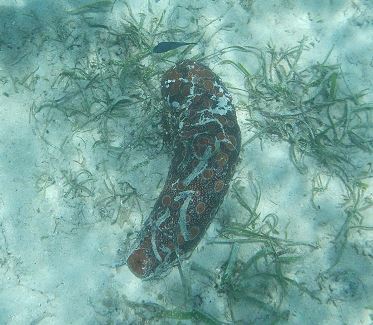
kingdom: Animalia
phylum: Echinodermata
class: Holothuroidea
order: Holothuriida
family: Holothuriidae
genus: Bohadschia
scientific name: Bohadschia ocellata
